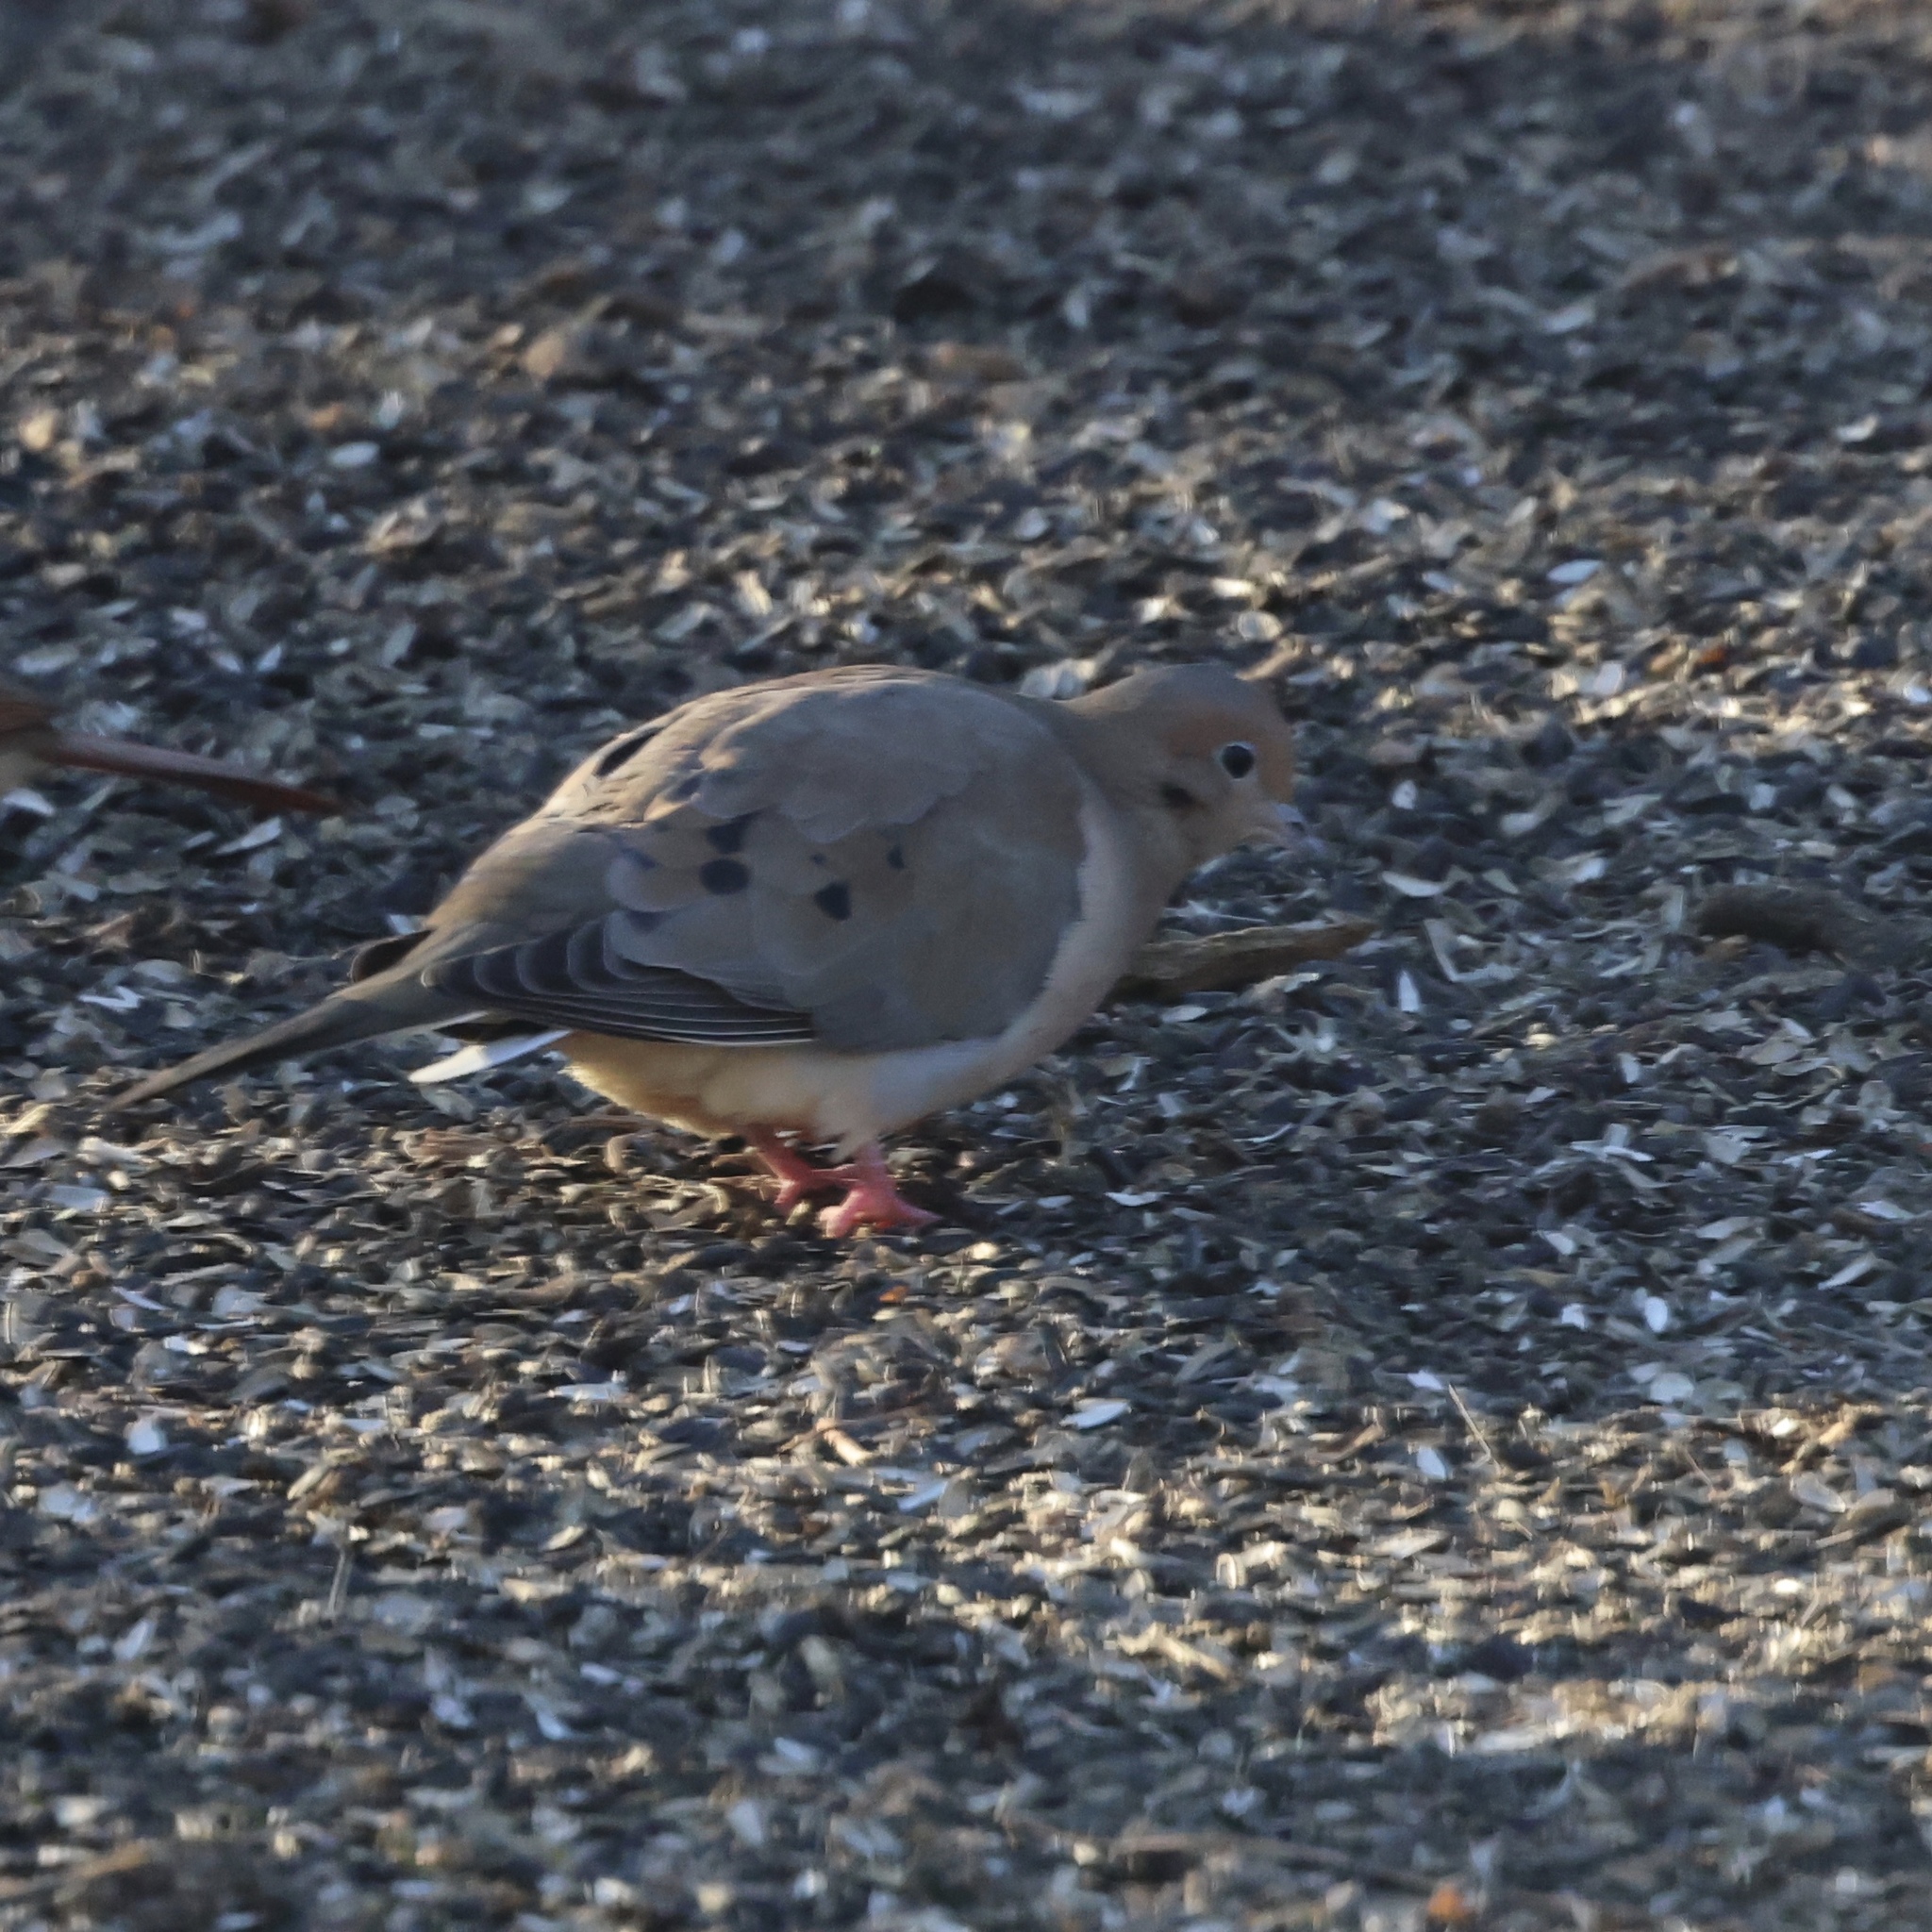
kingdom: Animalia
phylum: Chordata
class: Aves
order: Columbiformes
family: Columbidae
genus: Zenaida
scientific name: Zenaida macroura
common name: Mourning dove
